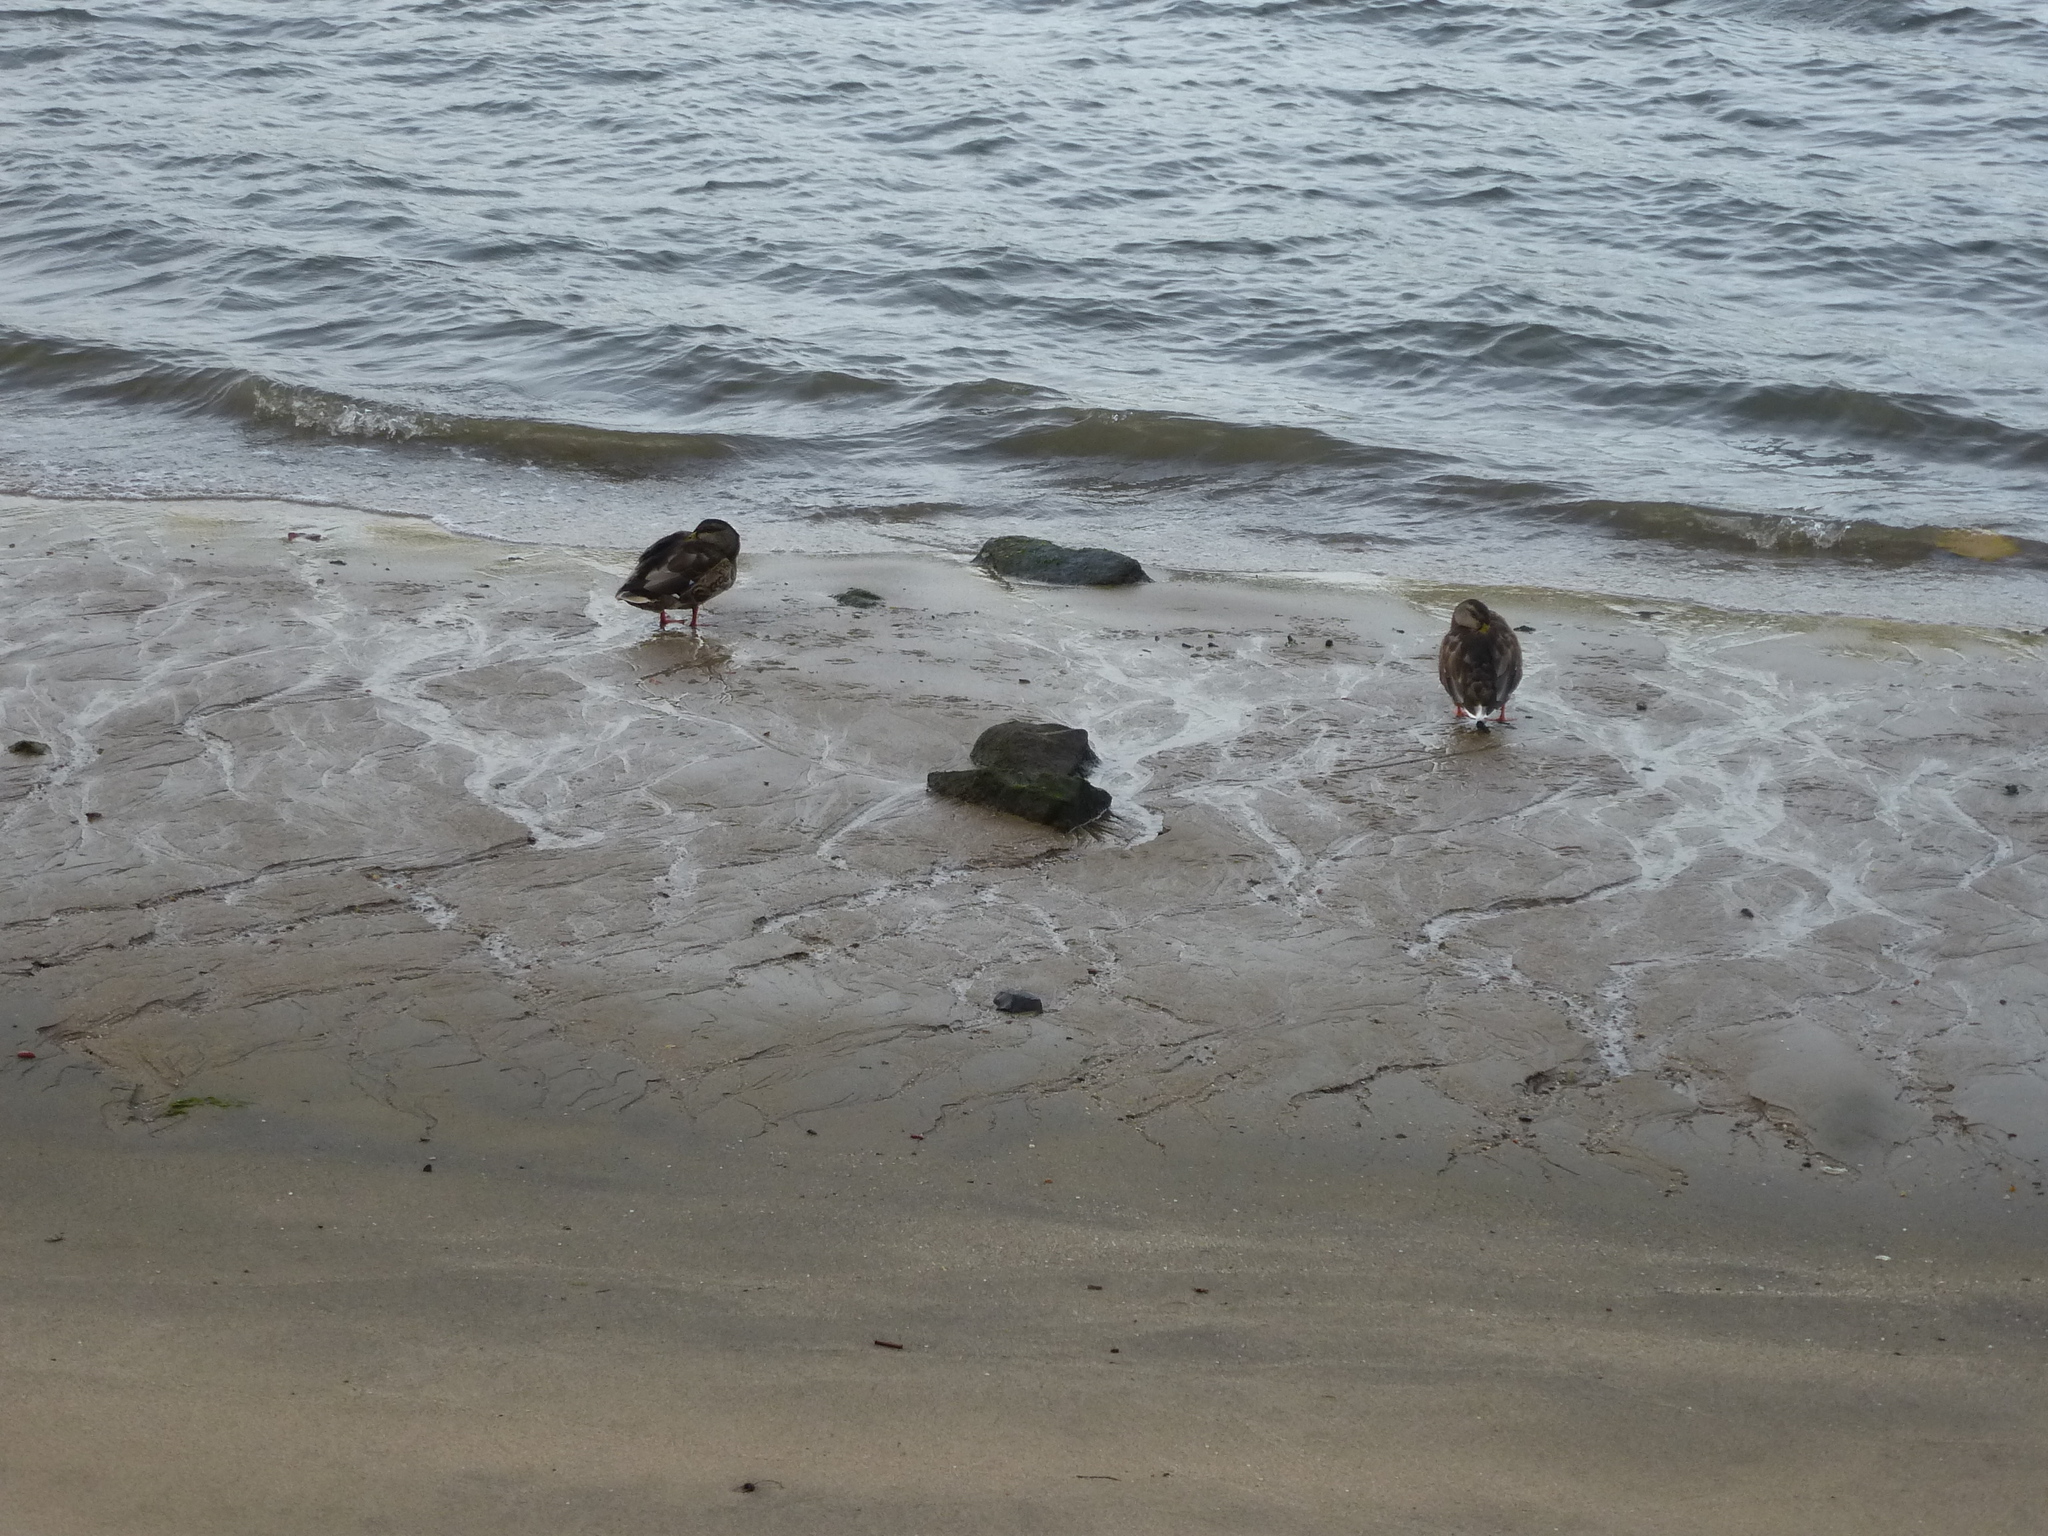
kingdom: Animalia
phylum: Chordata
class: Aves
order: Anseriformes
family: Anatidae
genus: Anas
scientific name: Anas platyrhynchos
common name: Mallard
